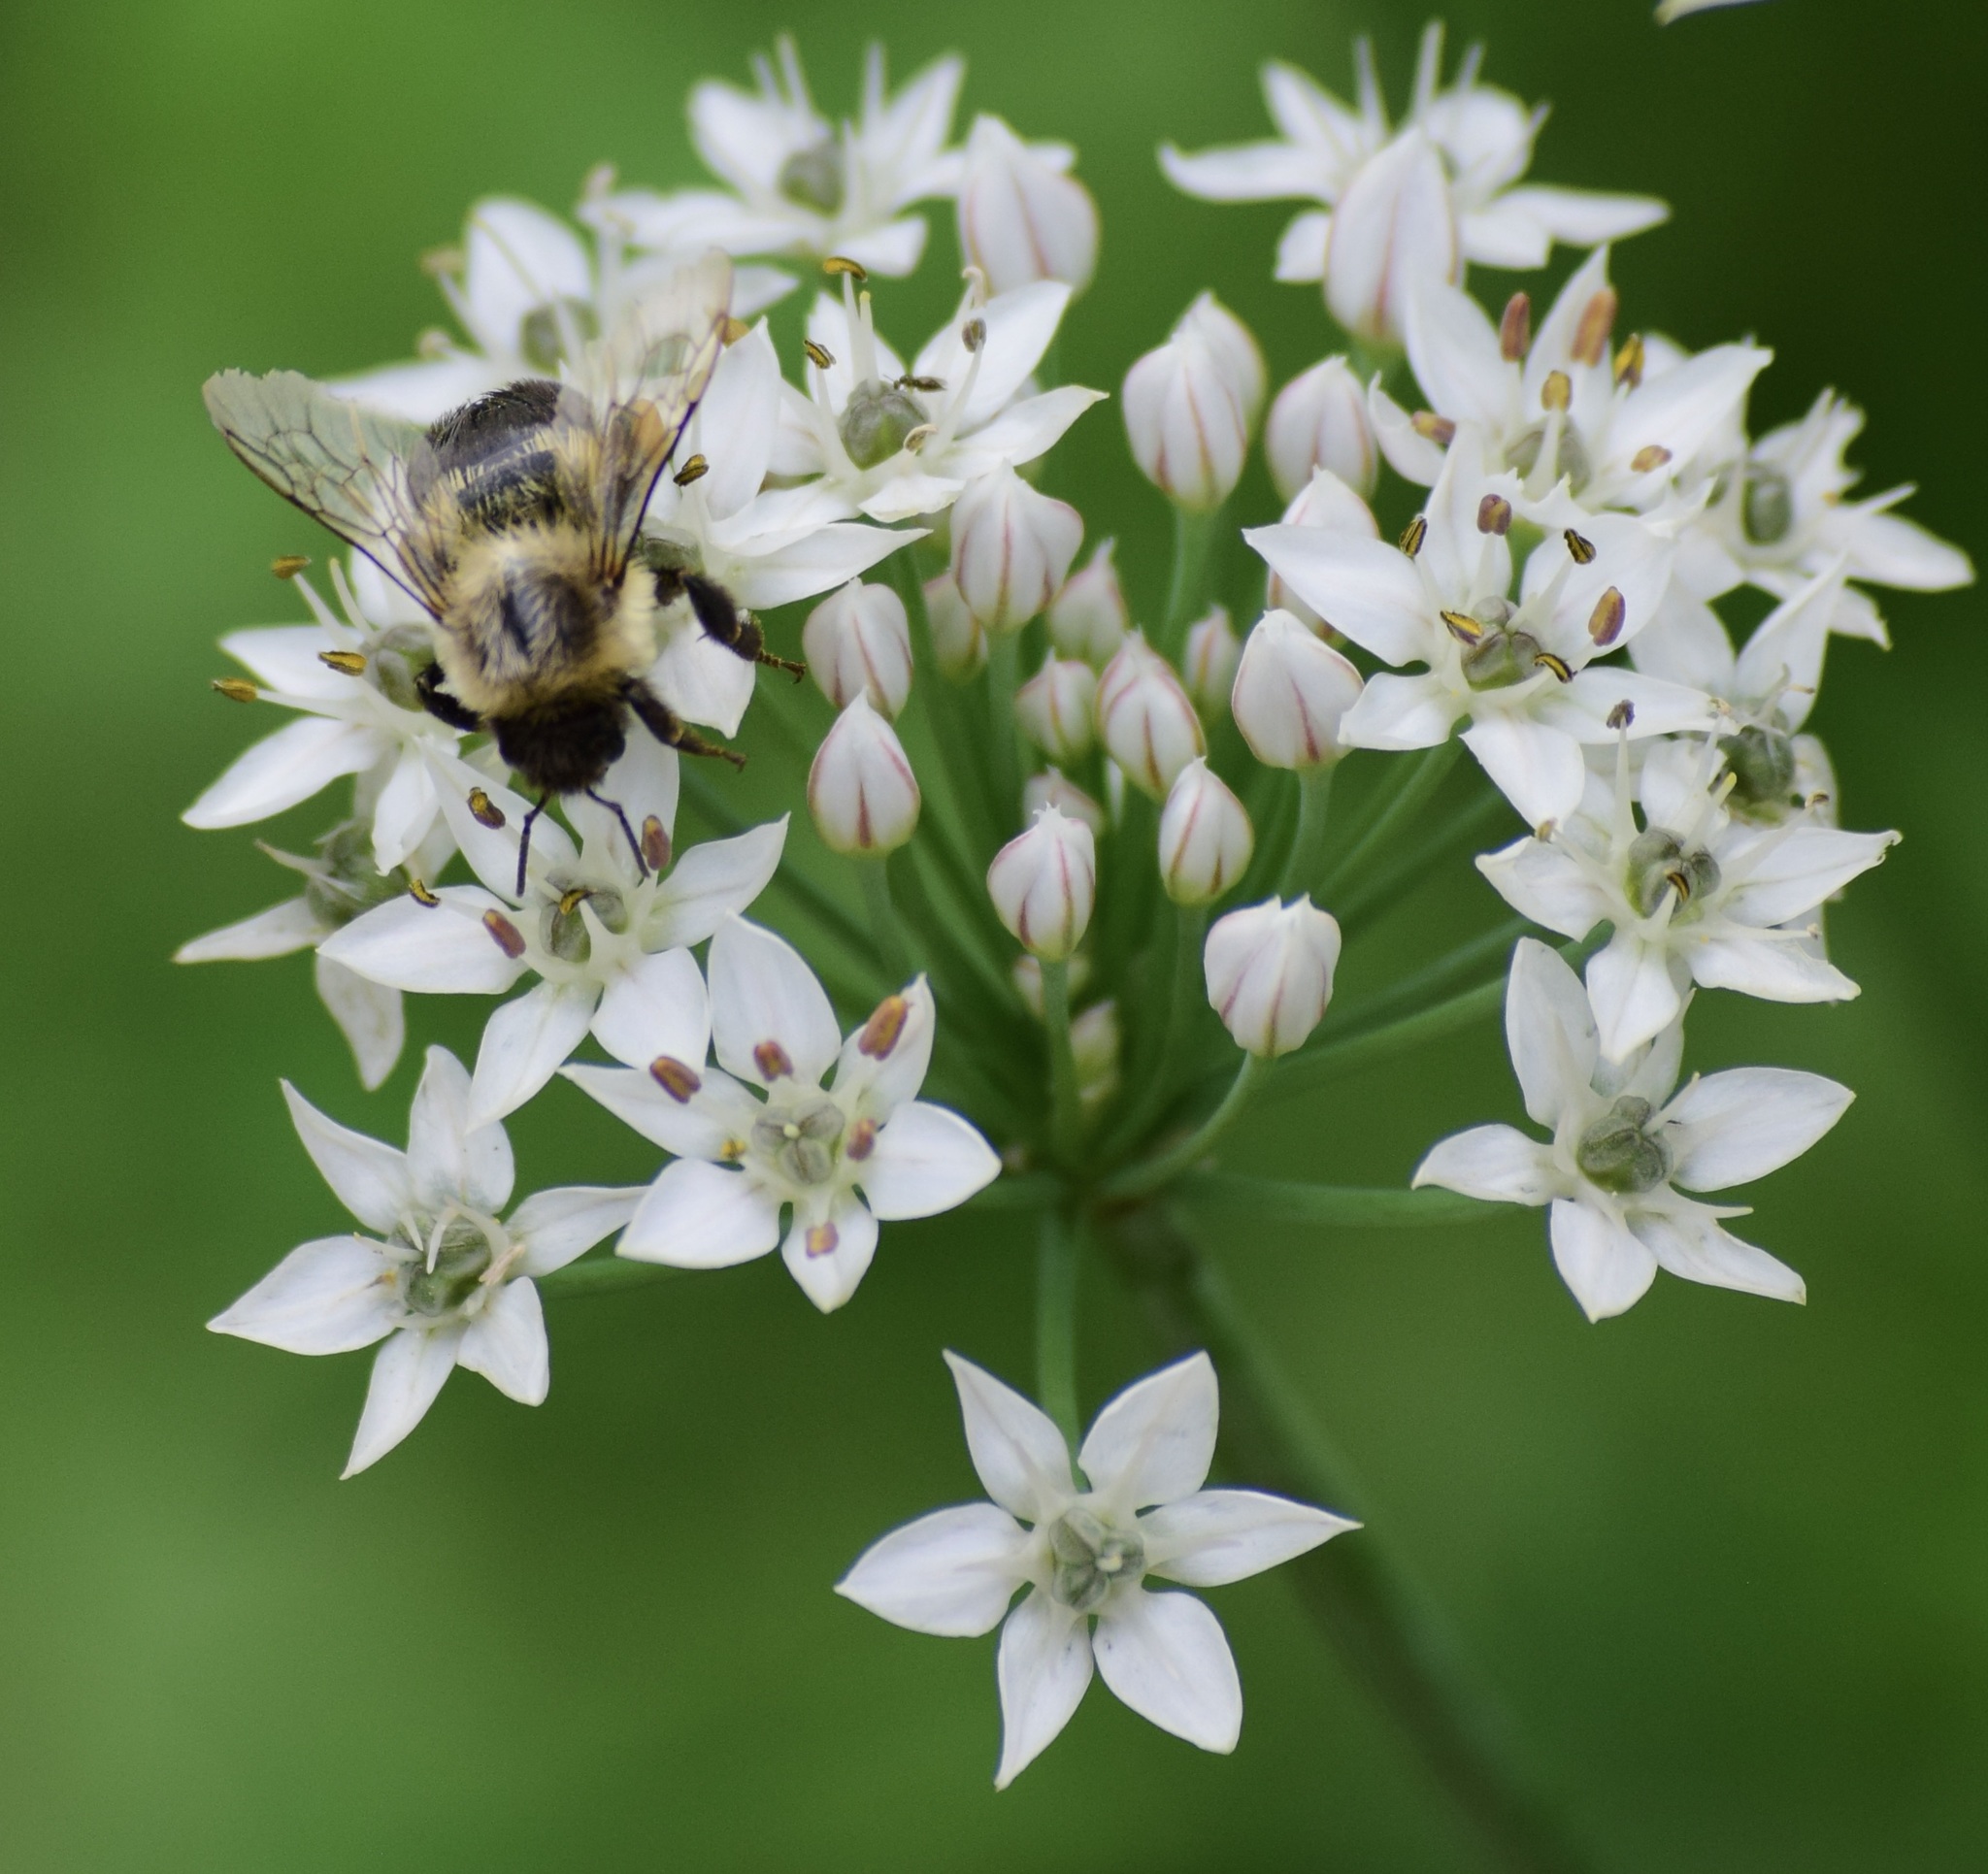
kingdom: Animalia
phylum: Arthropoda
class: Insecta
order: Hymenoptera
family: Apidae
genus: Bombus
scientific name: Bombus impatiens
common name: Common eastern bumble bee
